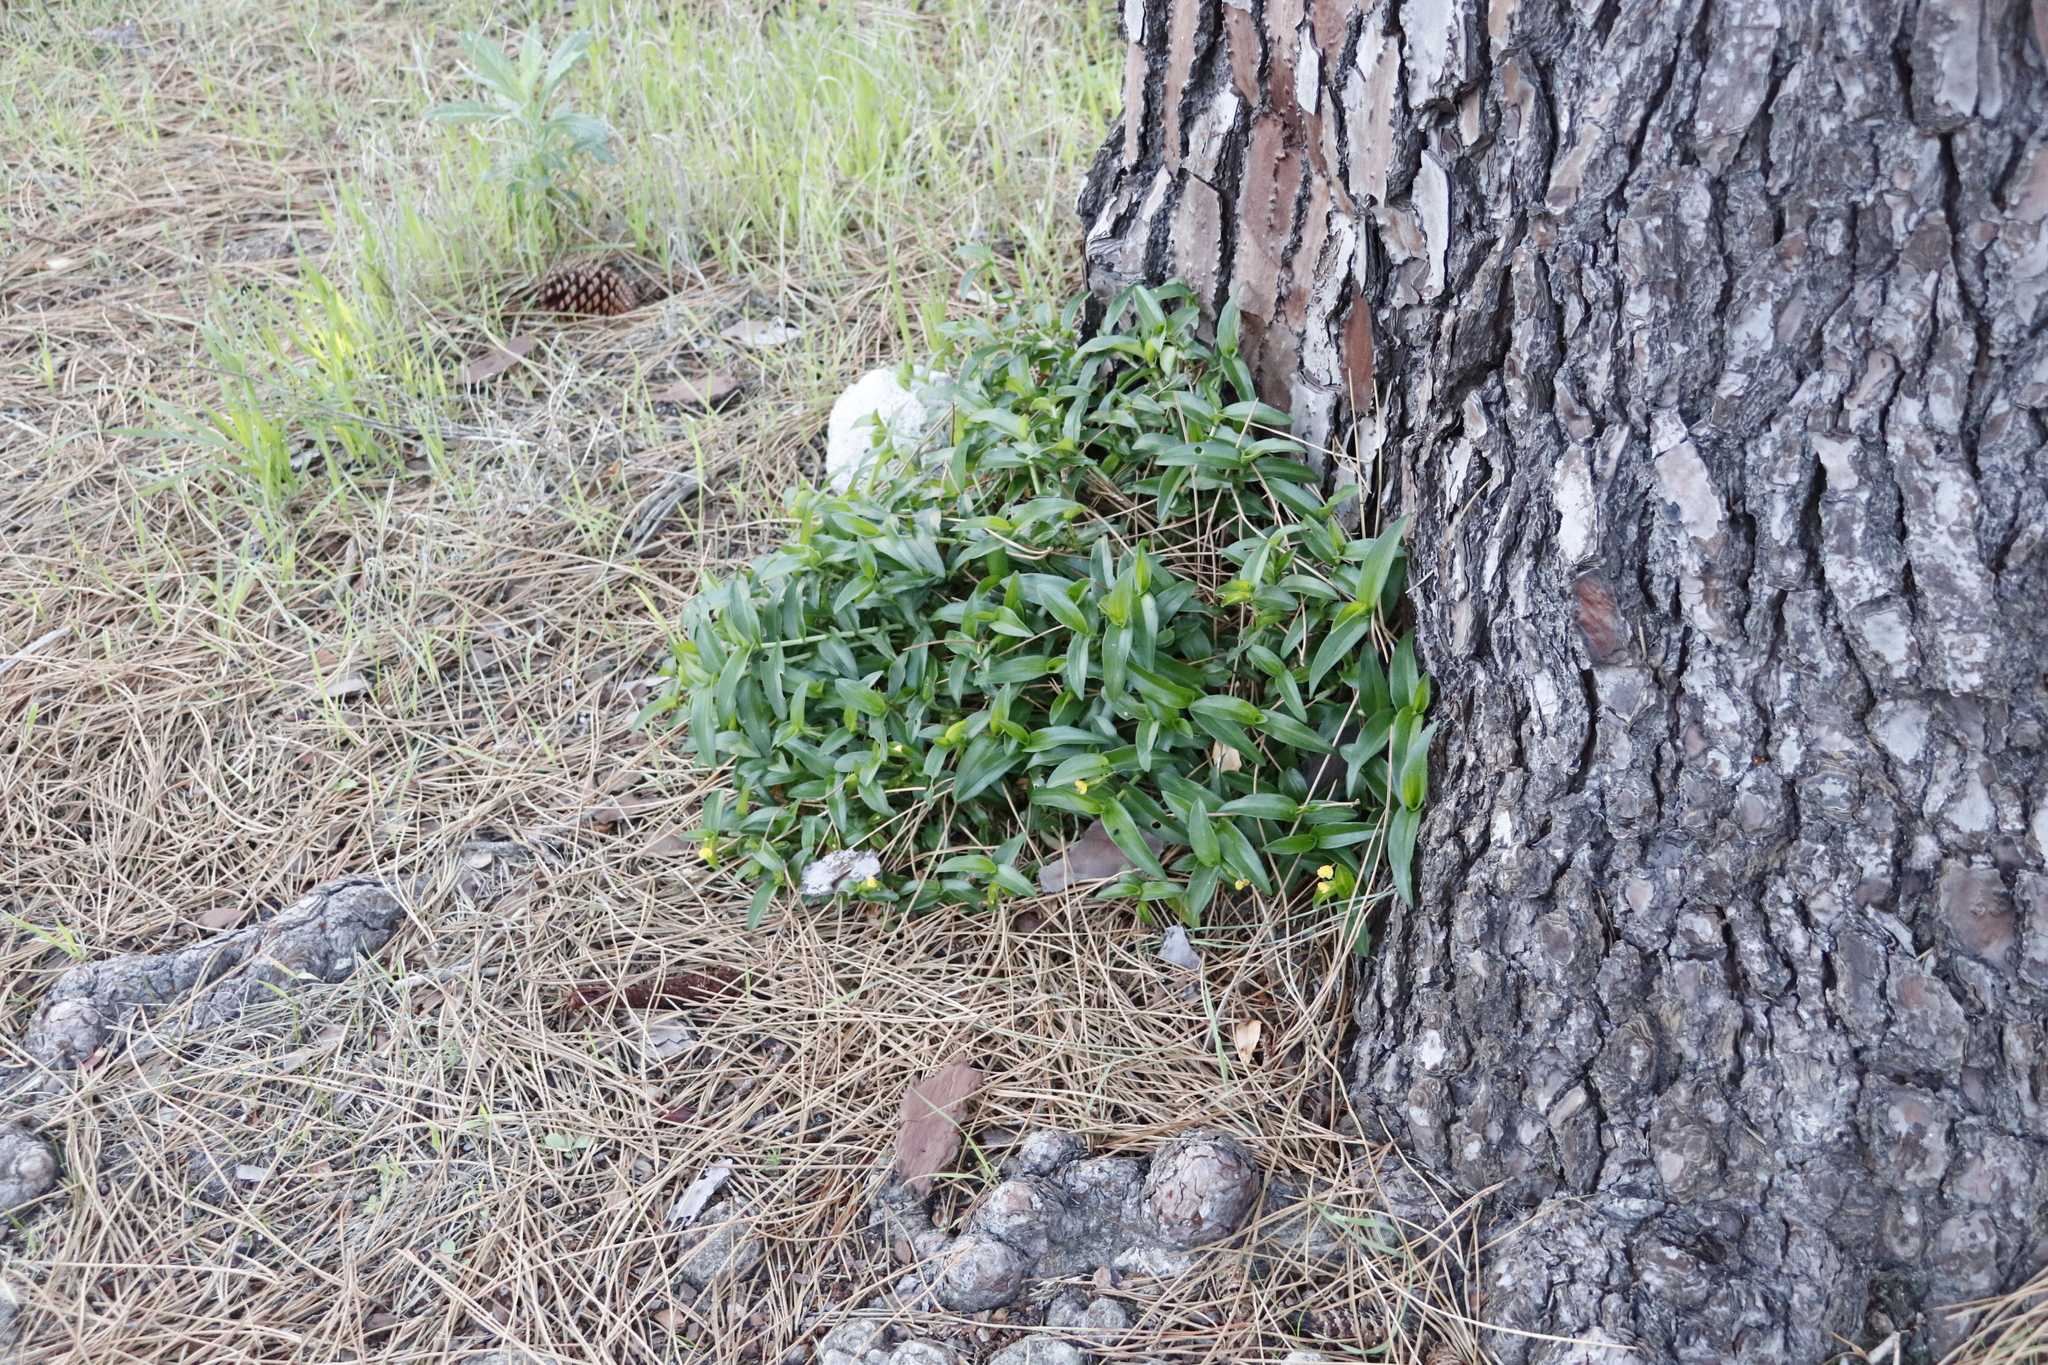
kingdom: Plantae
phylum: Tracheophyta
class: Liliopsida
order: Commelinales
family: Commelinaceae
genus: Commelina
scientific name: Commelina africana
